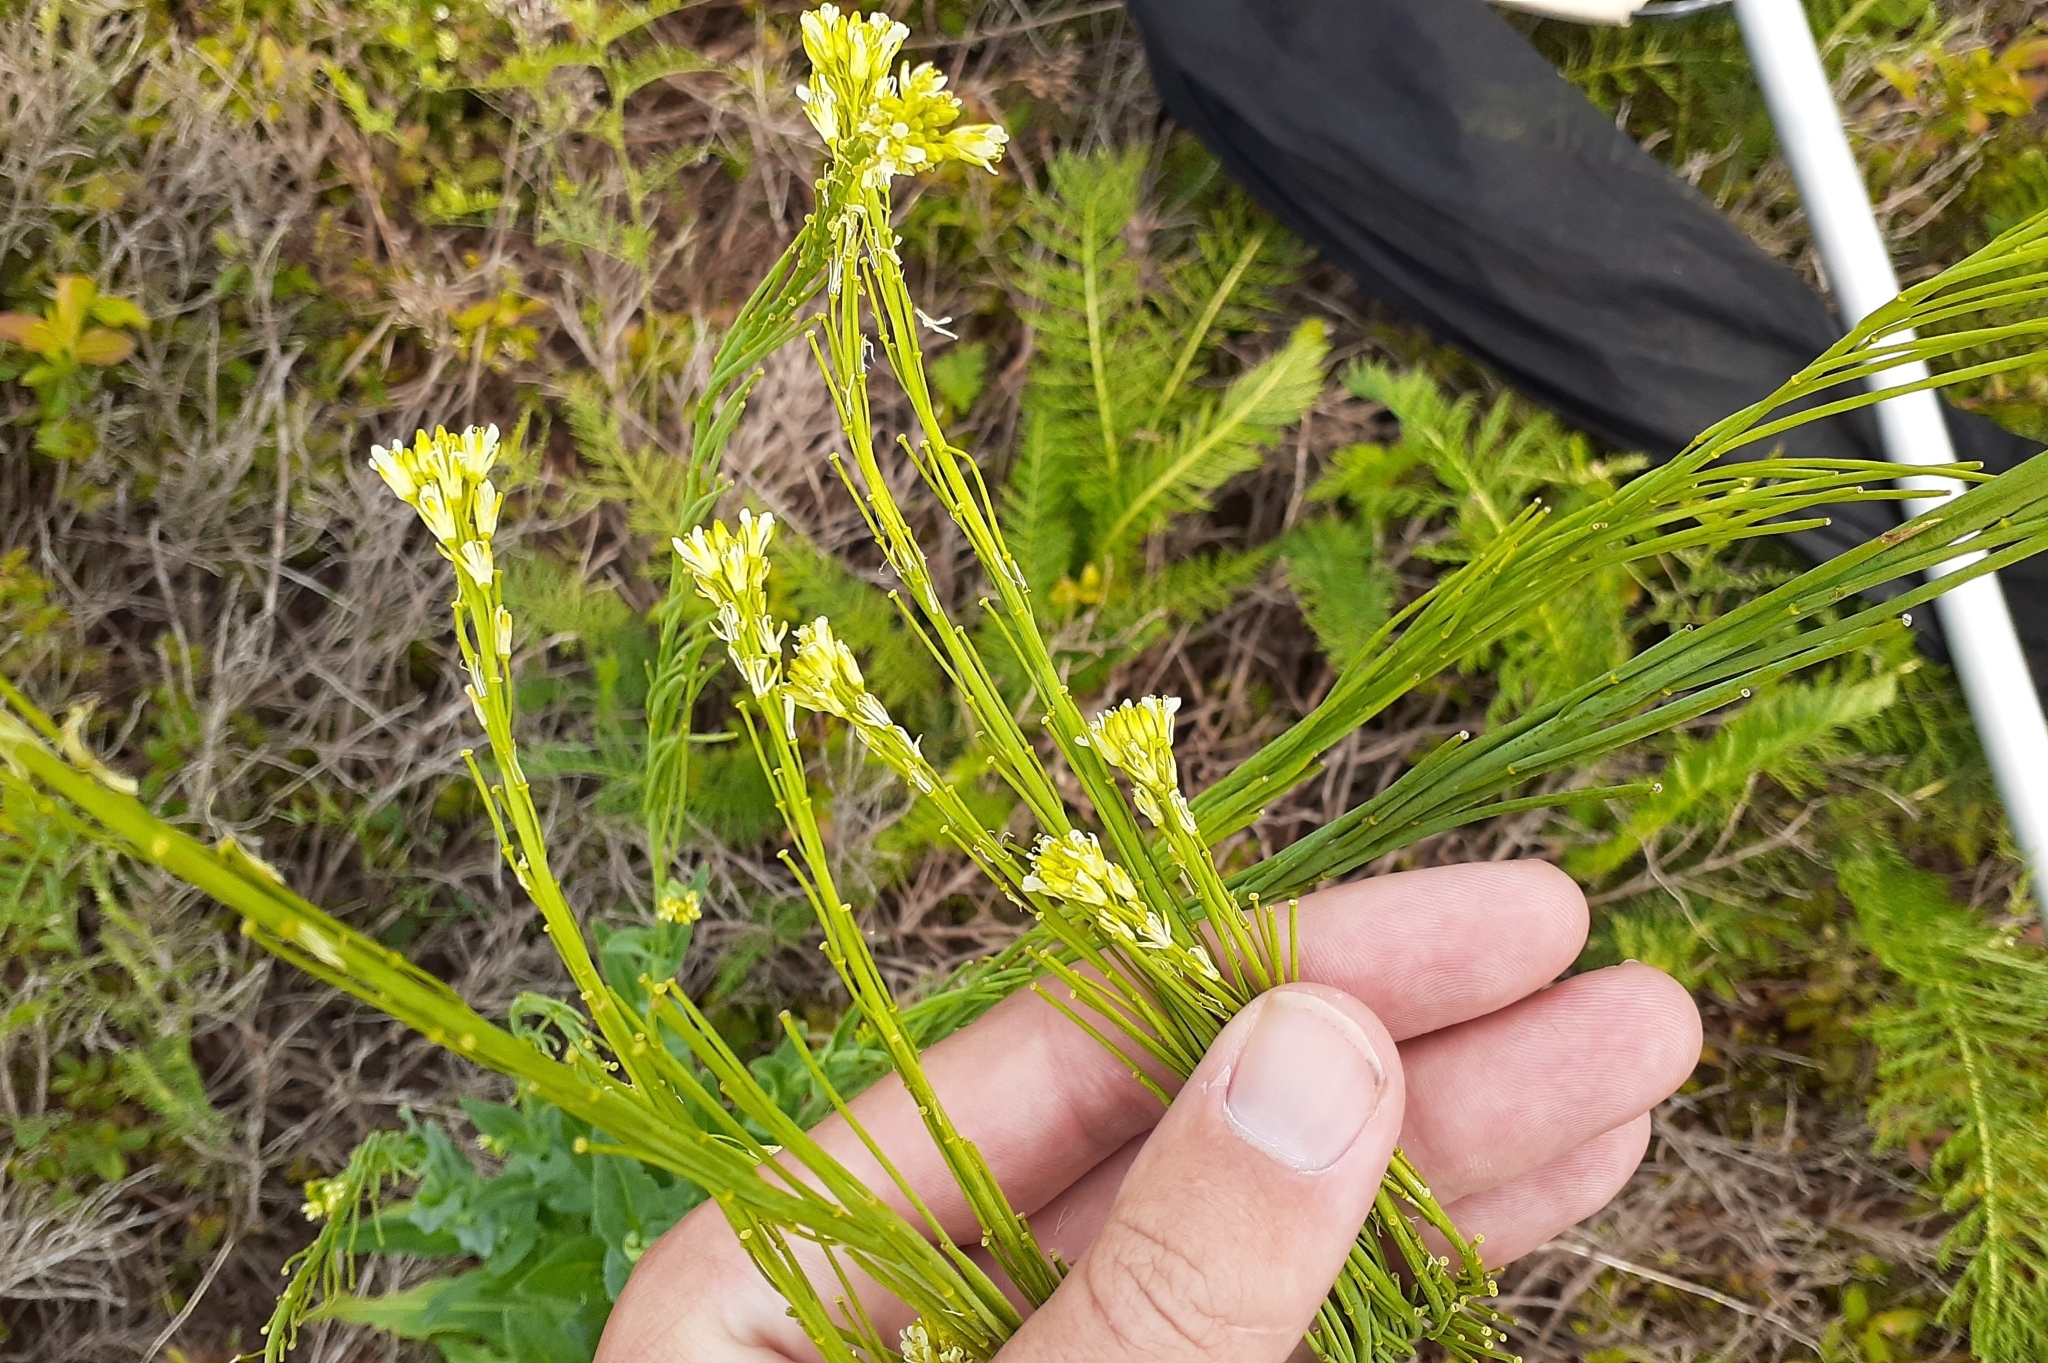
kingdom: Plantae
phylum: Tracheophyta
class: Magnoliopsida
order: Brassicales
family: Brassicaceae
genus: Turritis
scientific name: Turritis glabra
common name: Tower rockcress
